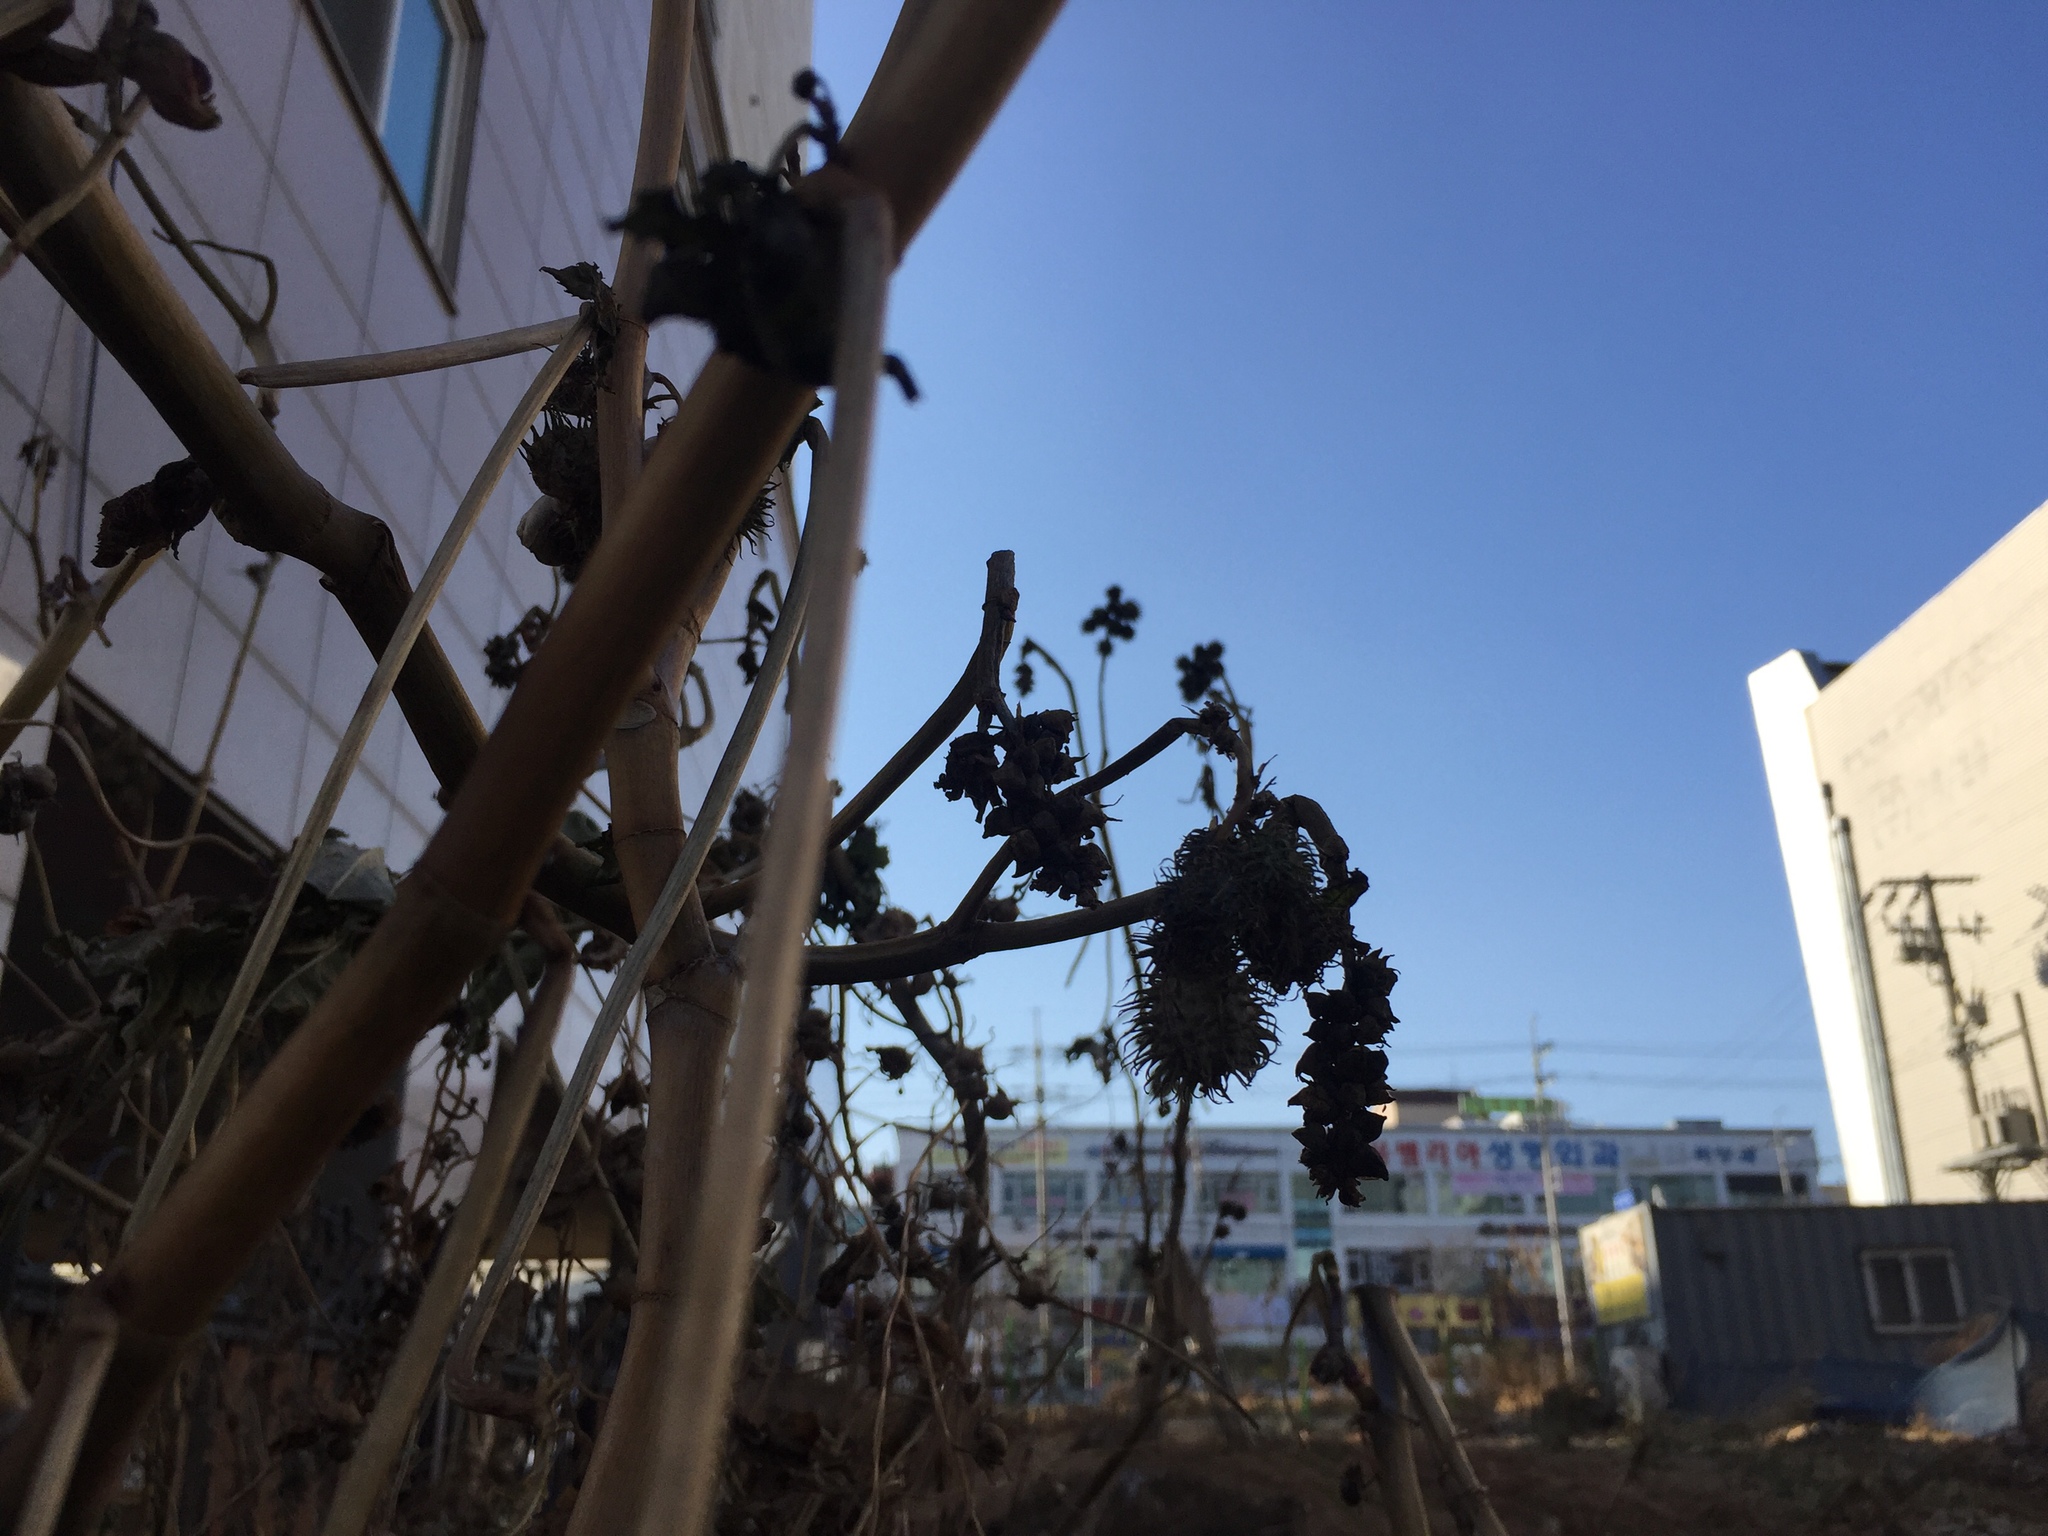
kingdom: Plantae
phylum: Tracheophyta
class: Magnoliopsida
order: Malpighiales
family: Euphorbiaceae
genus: Ricinus
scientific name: Ricinus communis
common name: Castor-oil-plant
